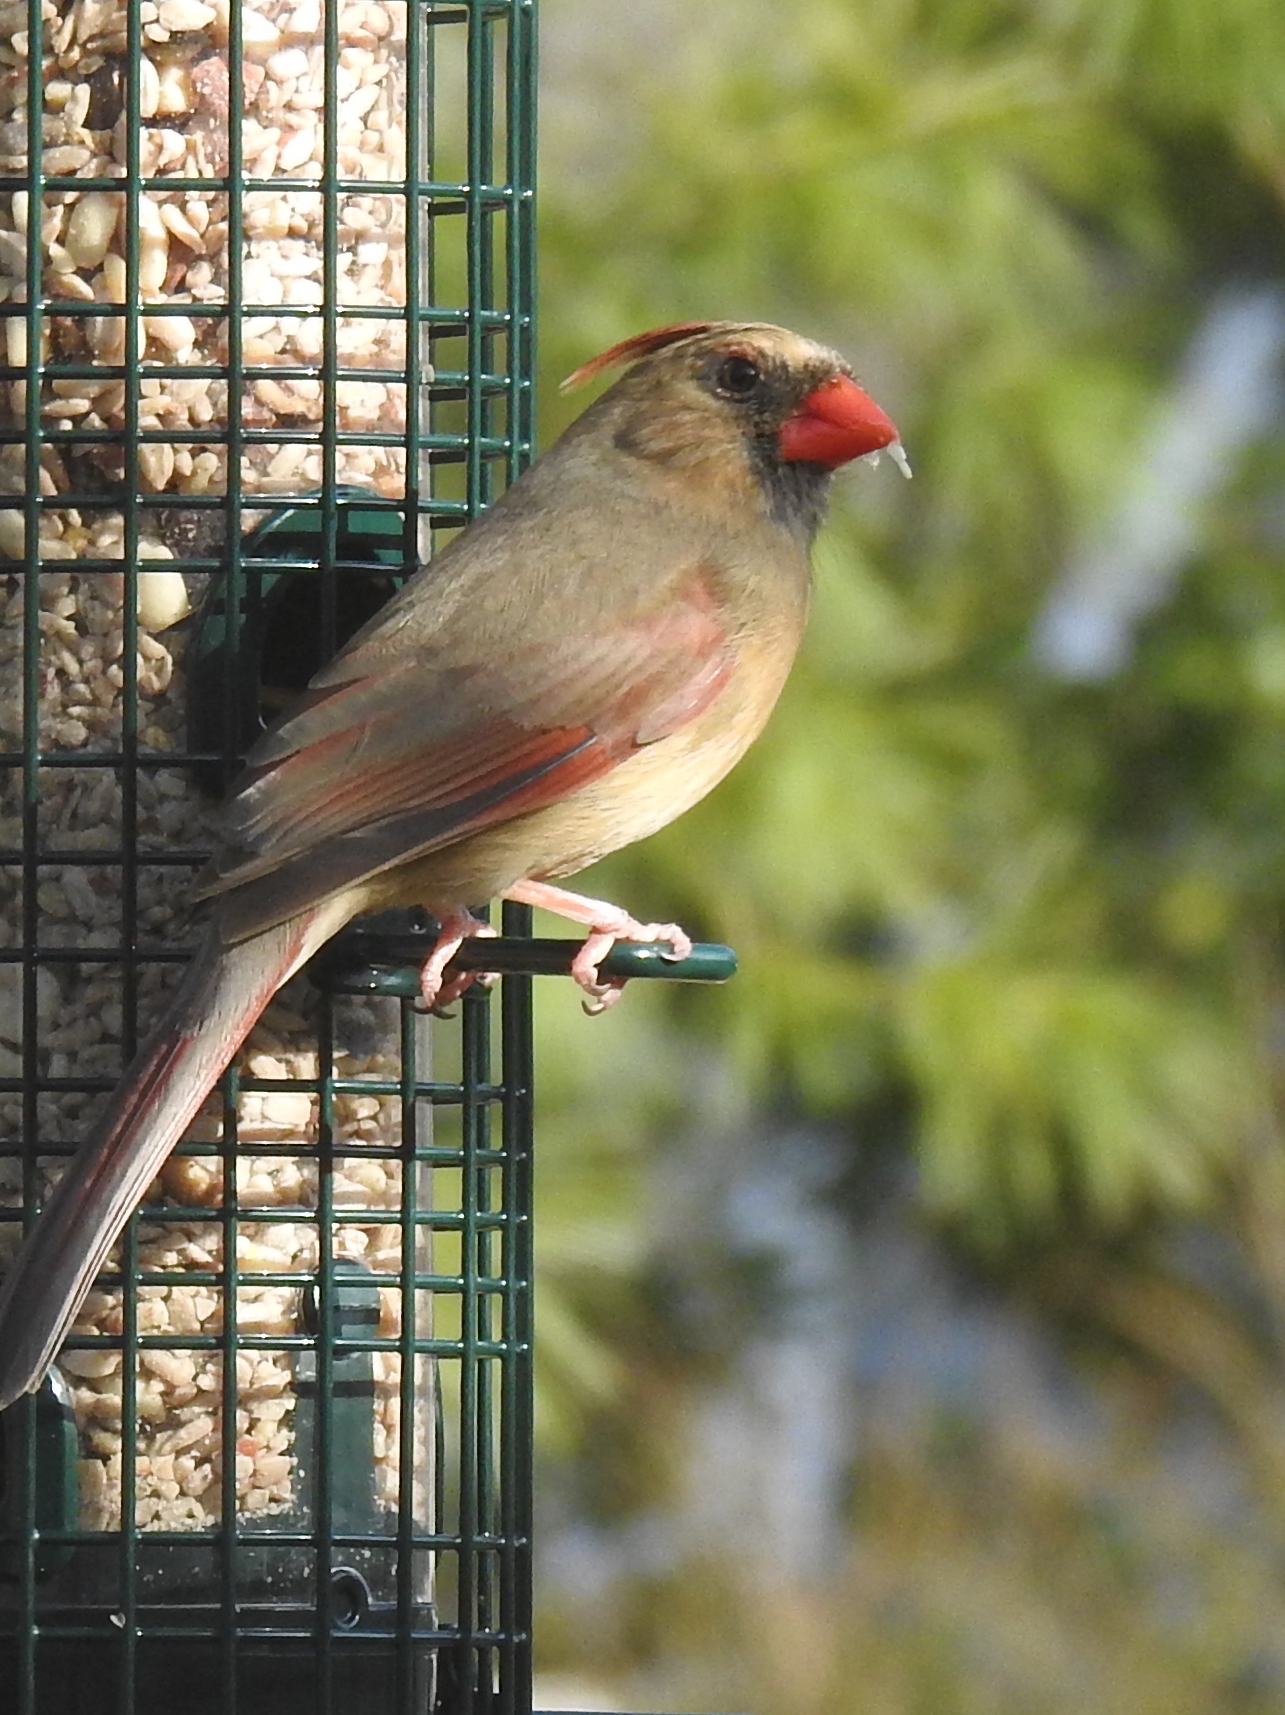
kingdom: Animalia
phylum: Chordata
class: Aves
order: Passeriformes
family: Cardinalidae
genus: Cardinalis
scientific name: Cardinalis cardinalis
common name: Northern cardinal
